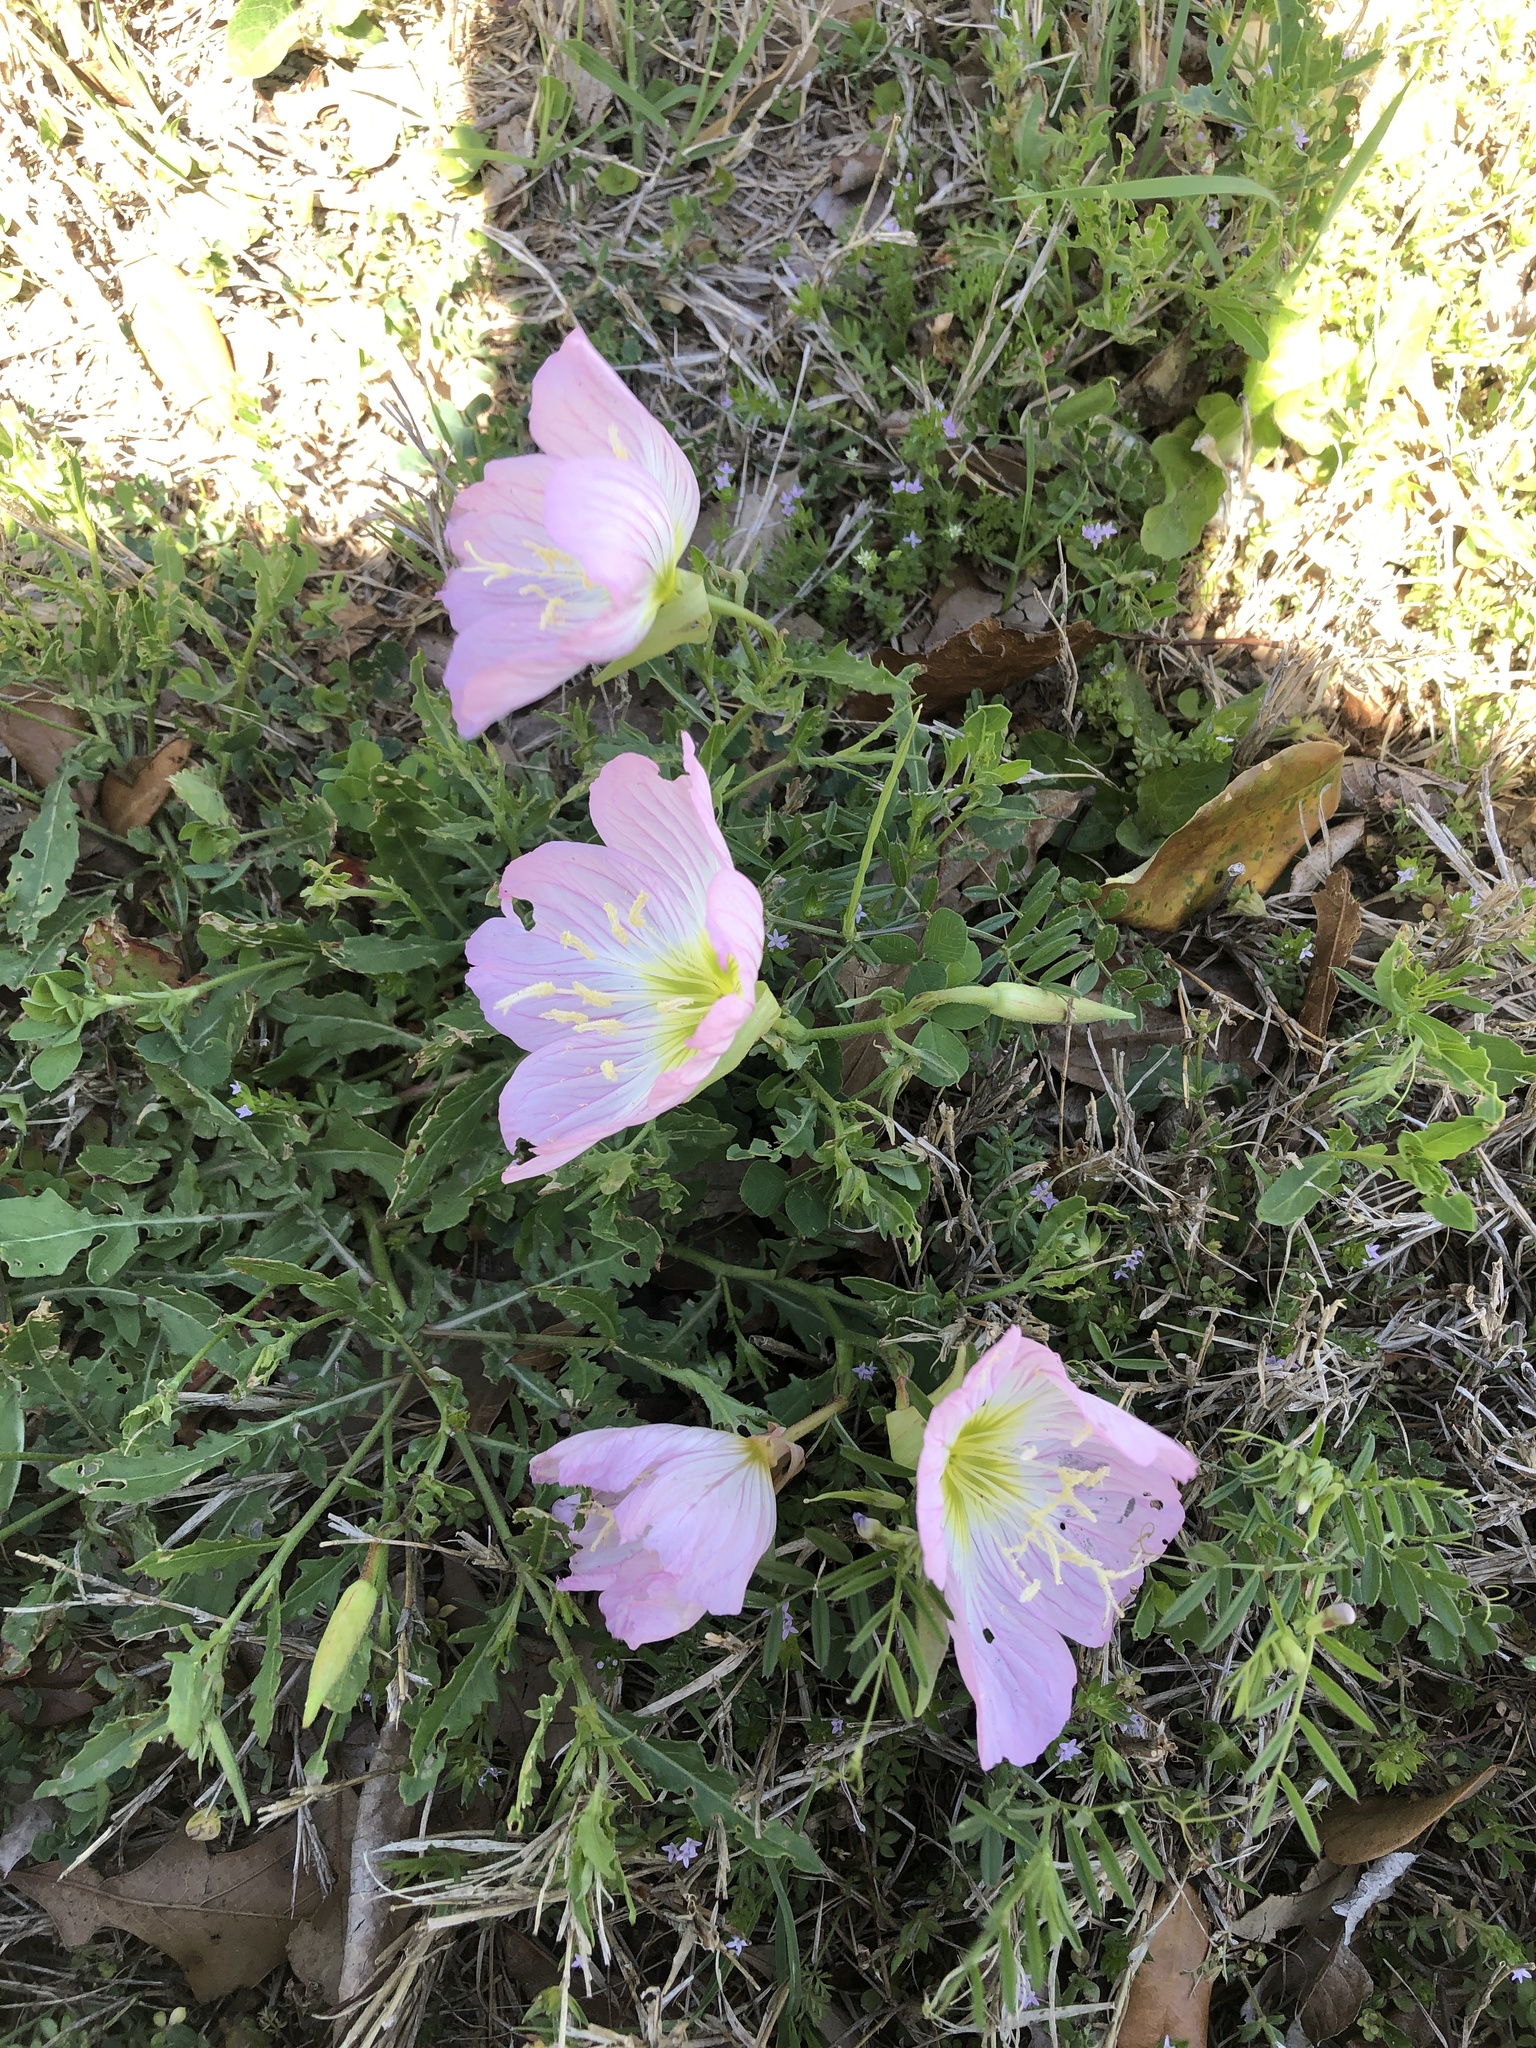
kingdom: Plantae
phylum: Tracheophyta
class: Magnoliopsida
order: Myrtales
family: Onagraceae
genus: Oenothera
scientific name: Oenothera speciosa
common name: White evening-primrose
